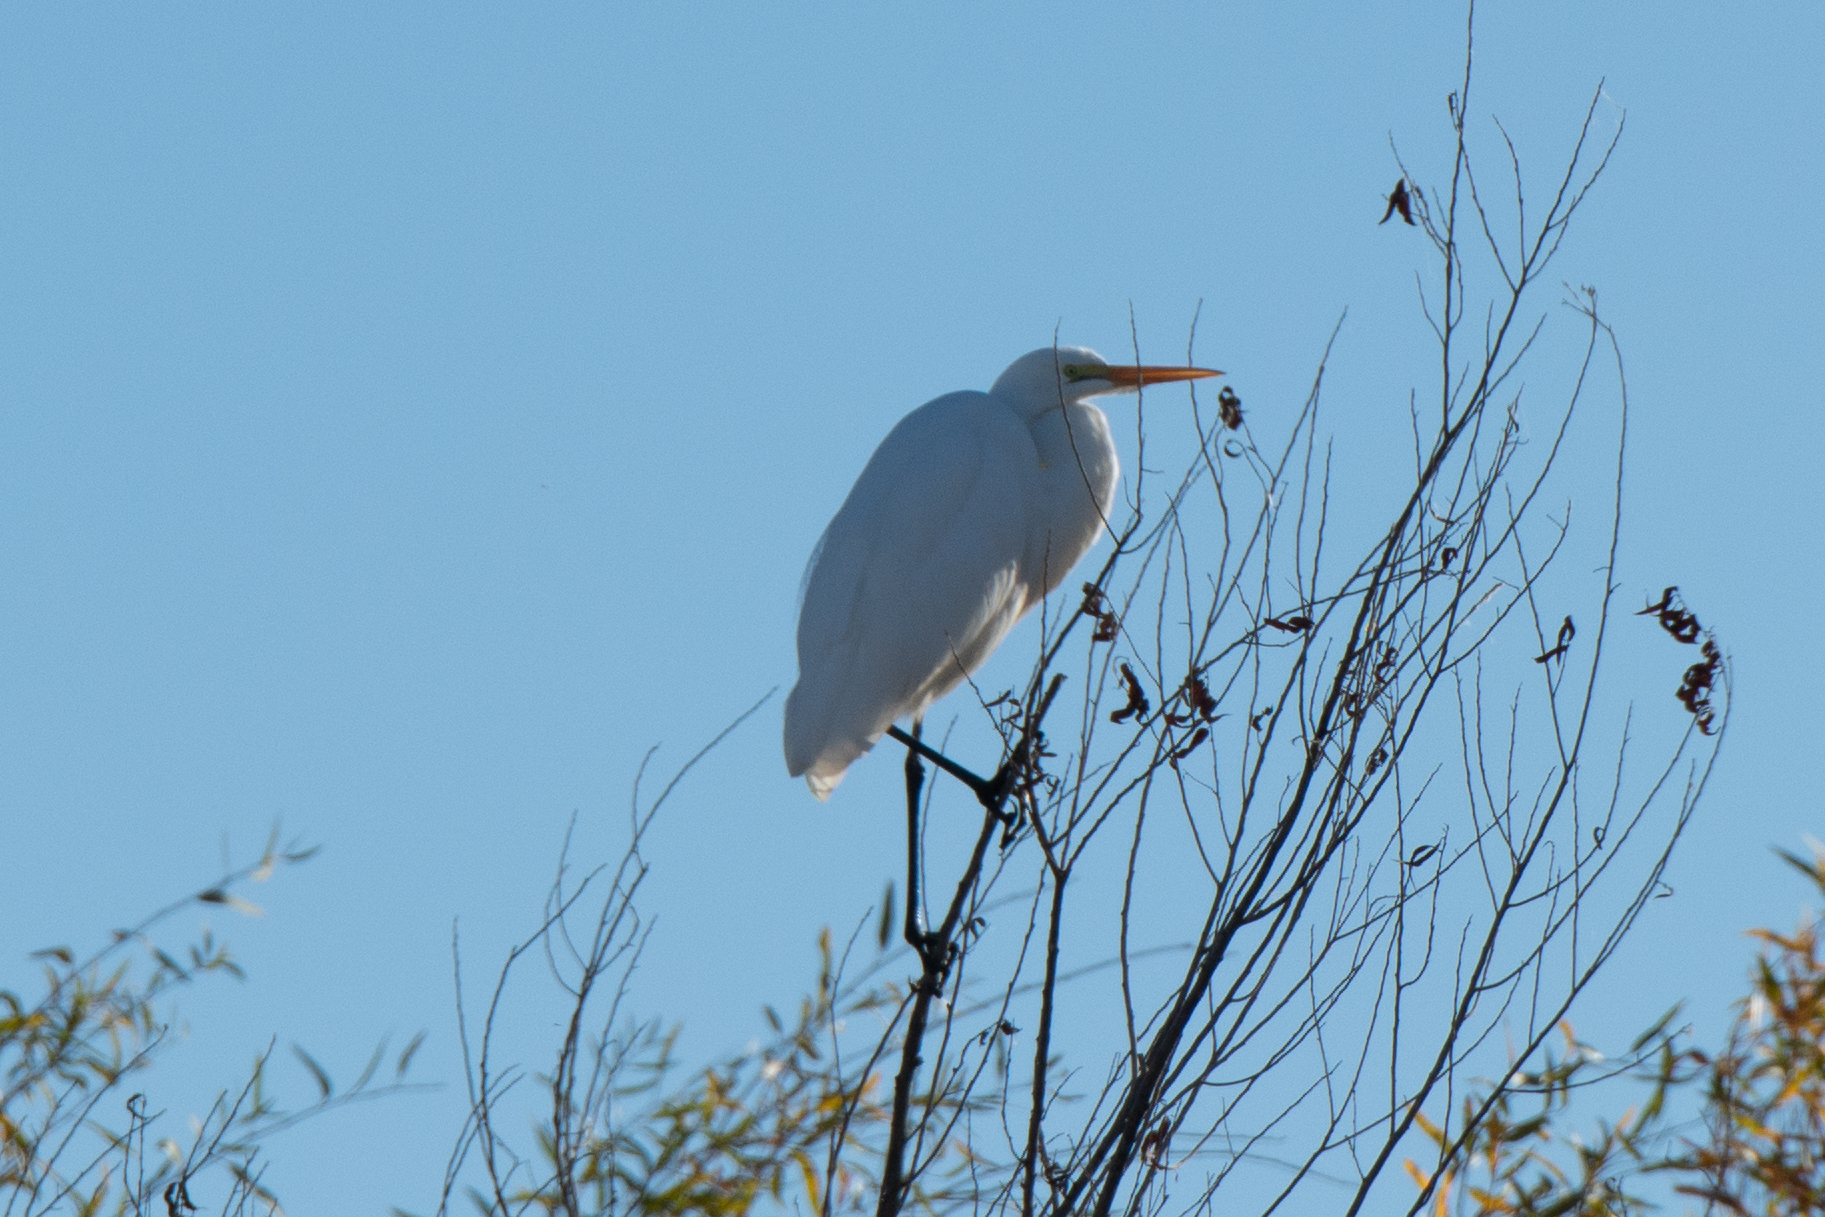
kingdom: Animalia
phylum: Chordata
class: Aves
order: Pelecaniformes
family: Ardeidae
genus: Ardea
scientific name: Ardea alba
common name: Great egret
